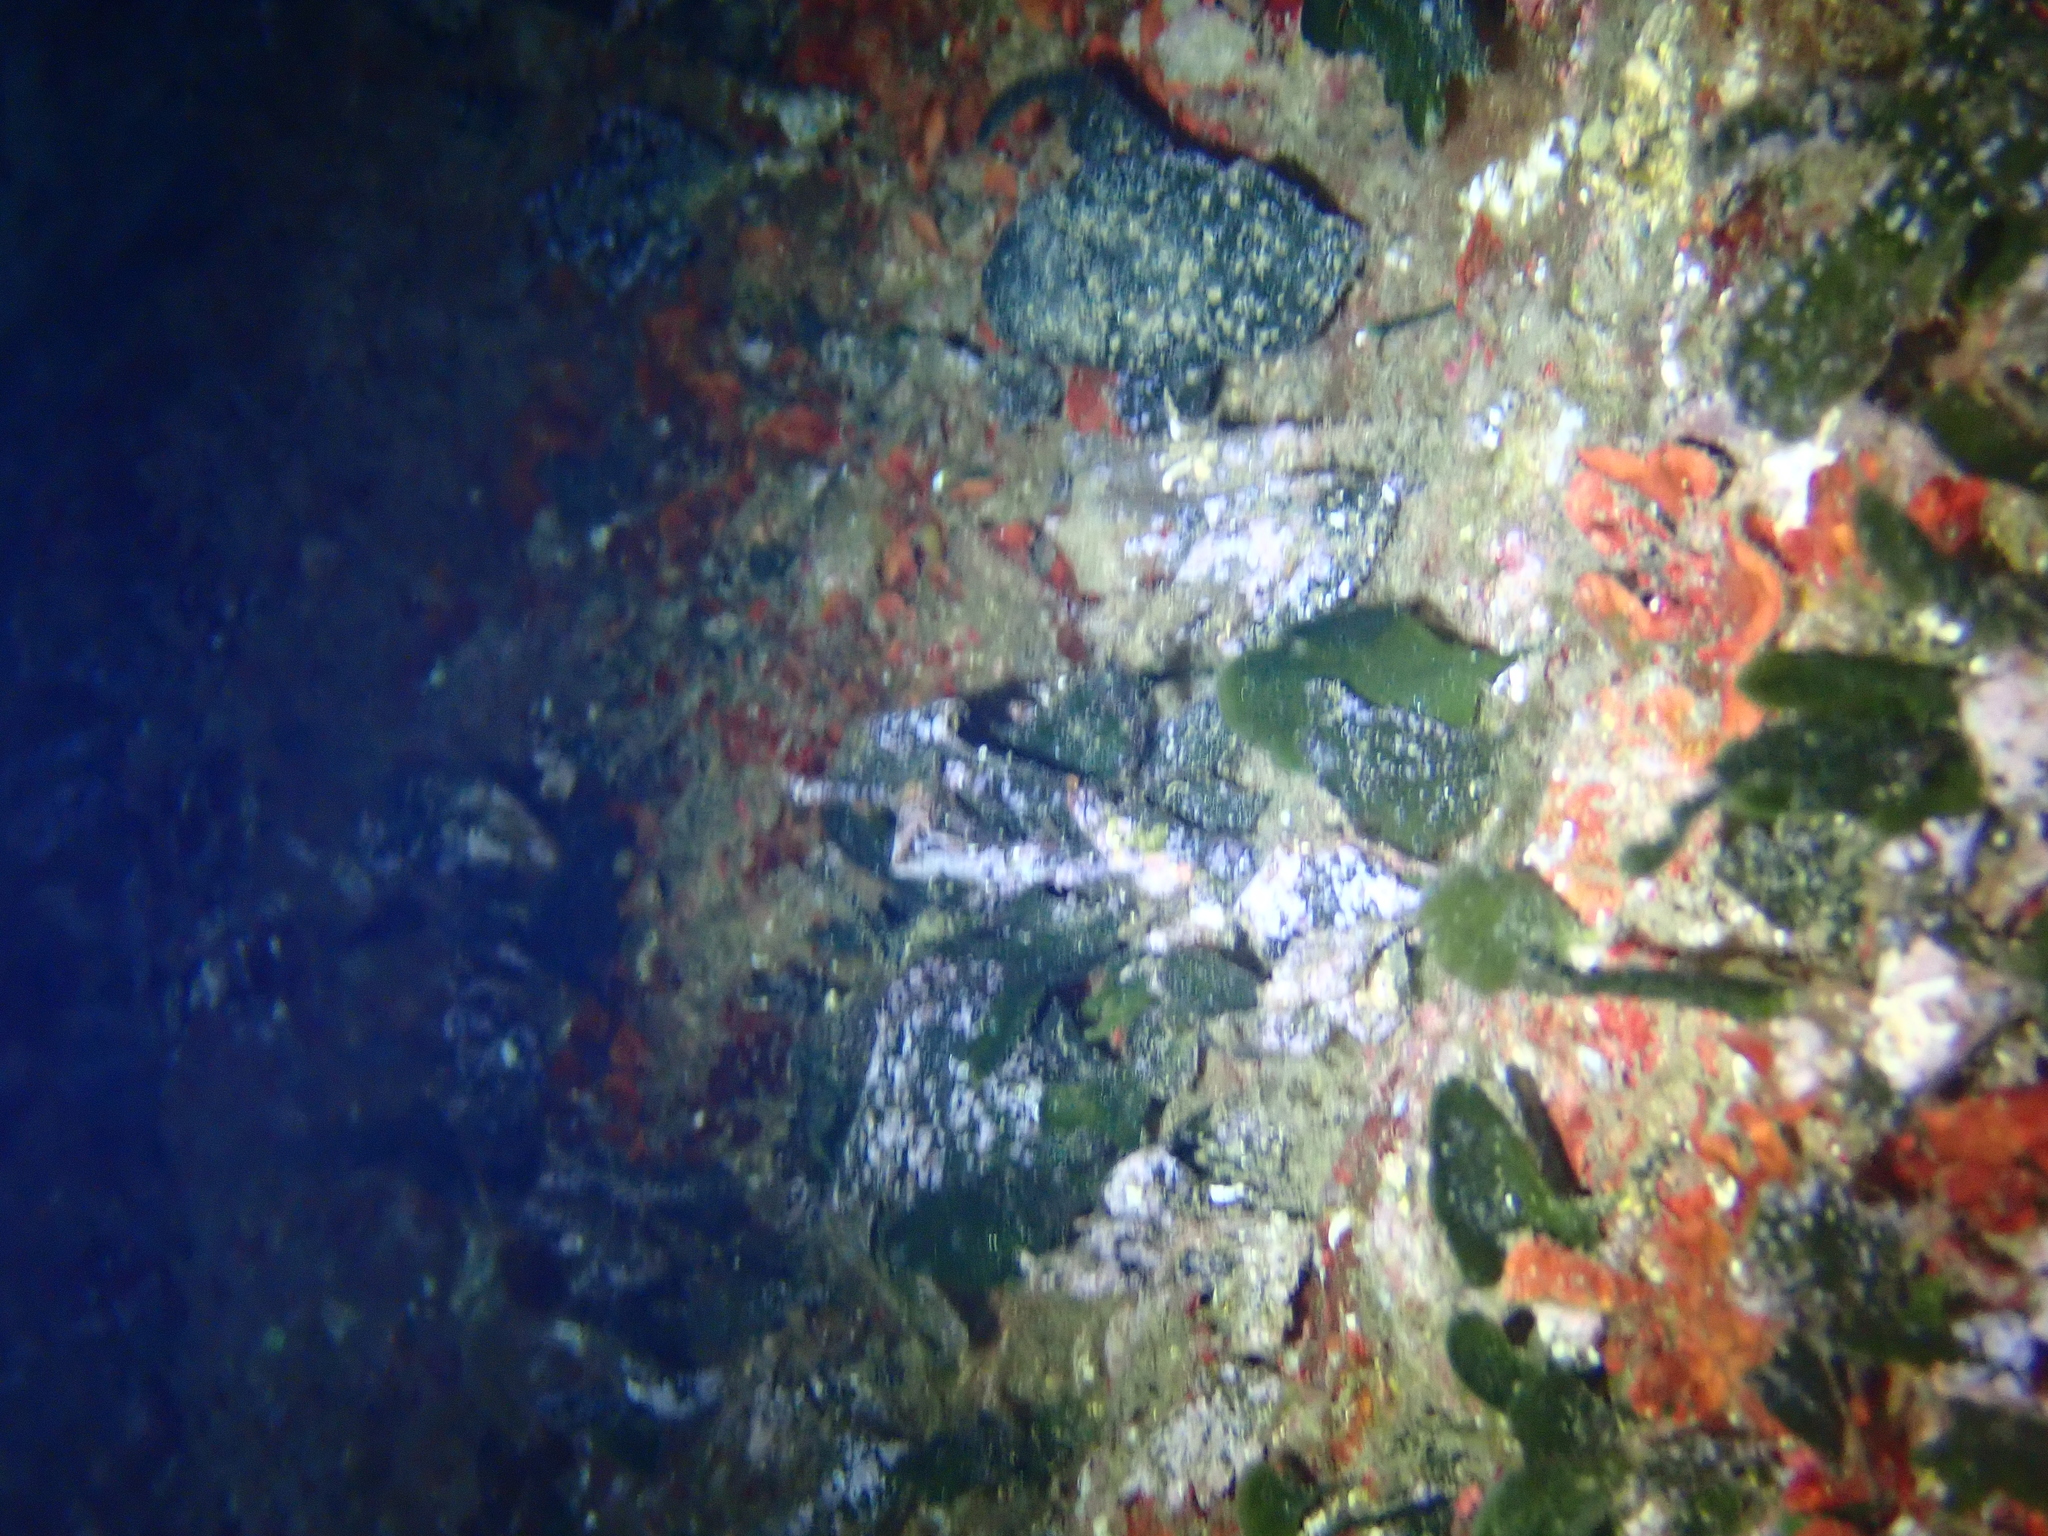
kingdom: Plantae
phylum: Chlorophyta
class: Ulvophyceae
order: Bryopsidales
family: Codiaceae
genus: Codium
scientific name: Codium Flabellia petiolata
